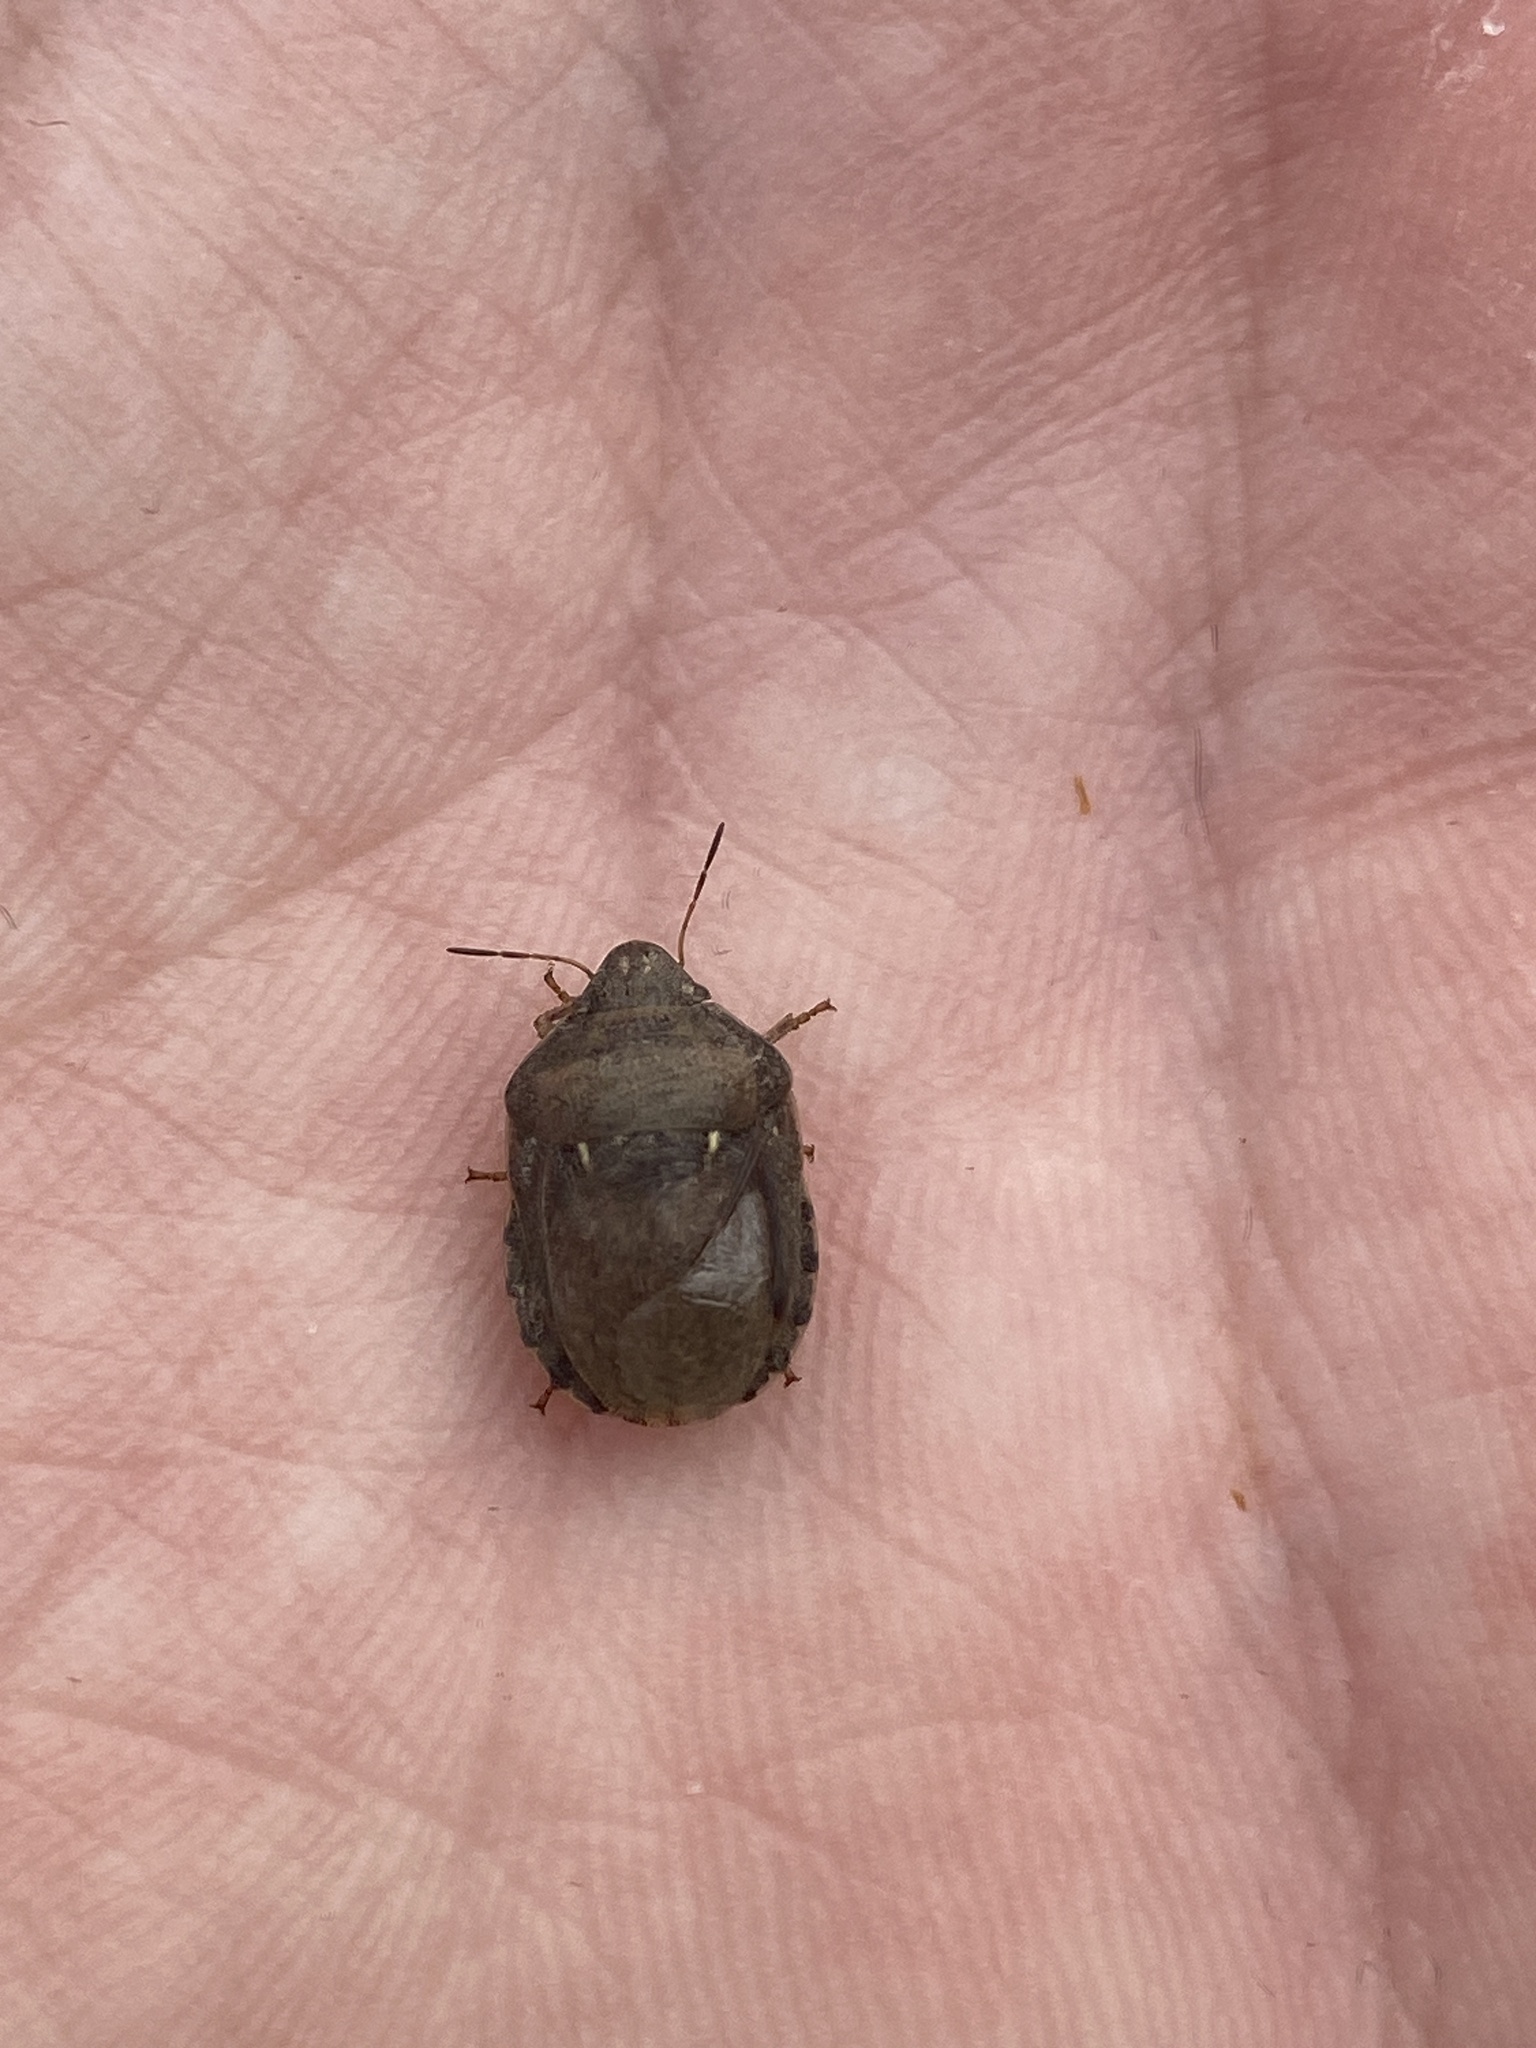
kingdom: Animalia
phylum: Arthropoda
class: Insecta
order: Hemiptera
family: Scutelleridae
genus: Eurygaster
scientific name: Eurygaster maura
